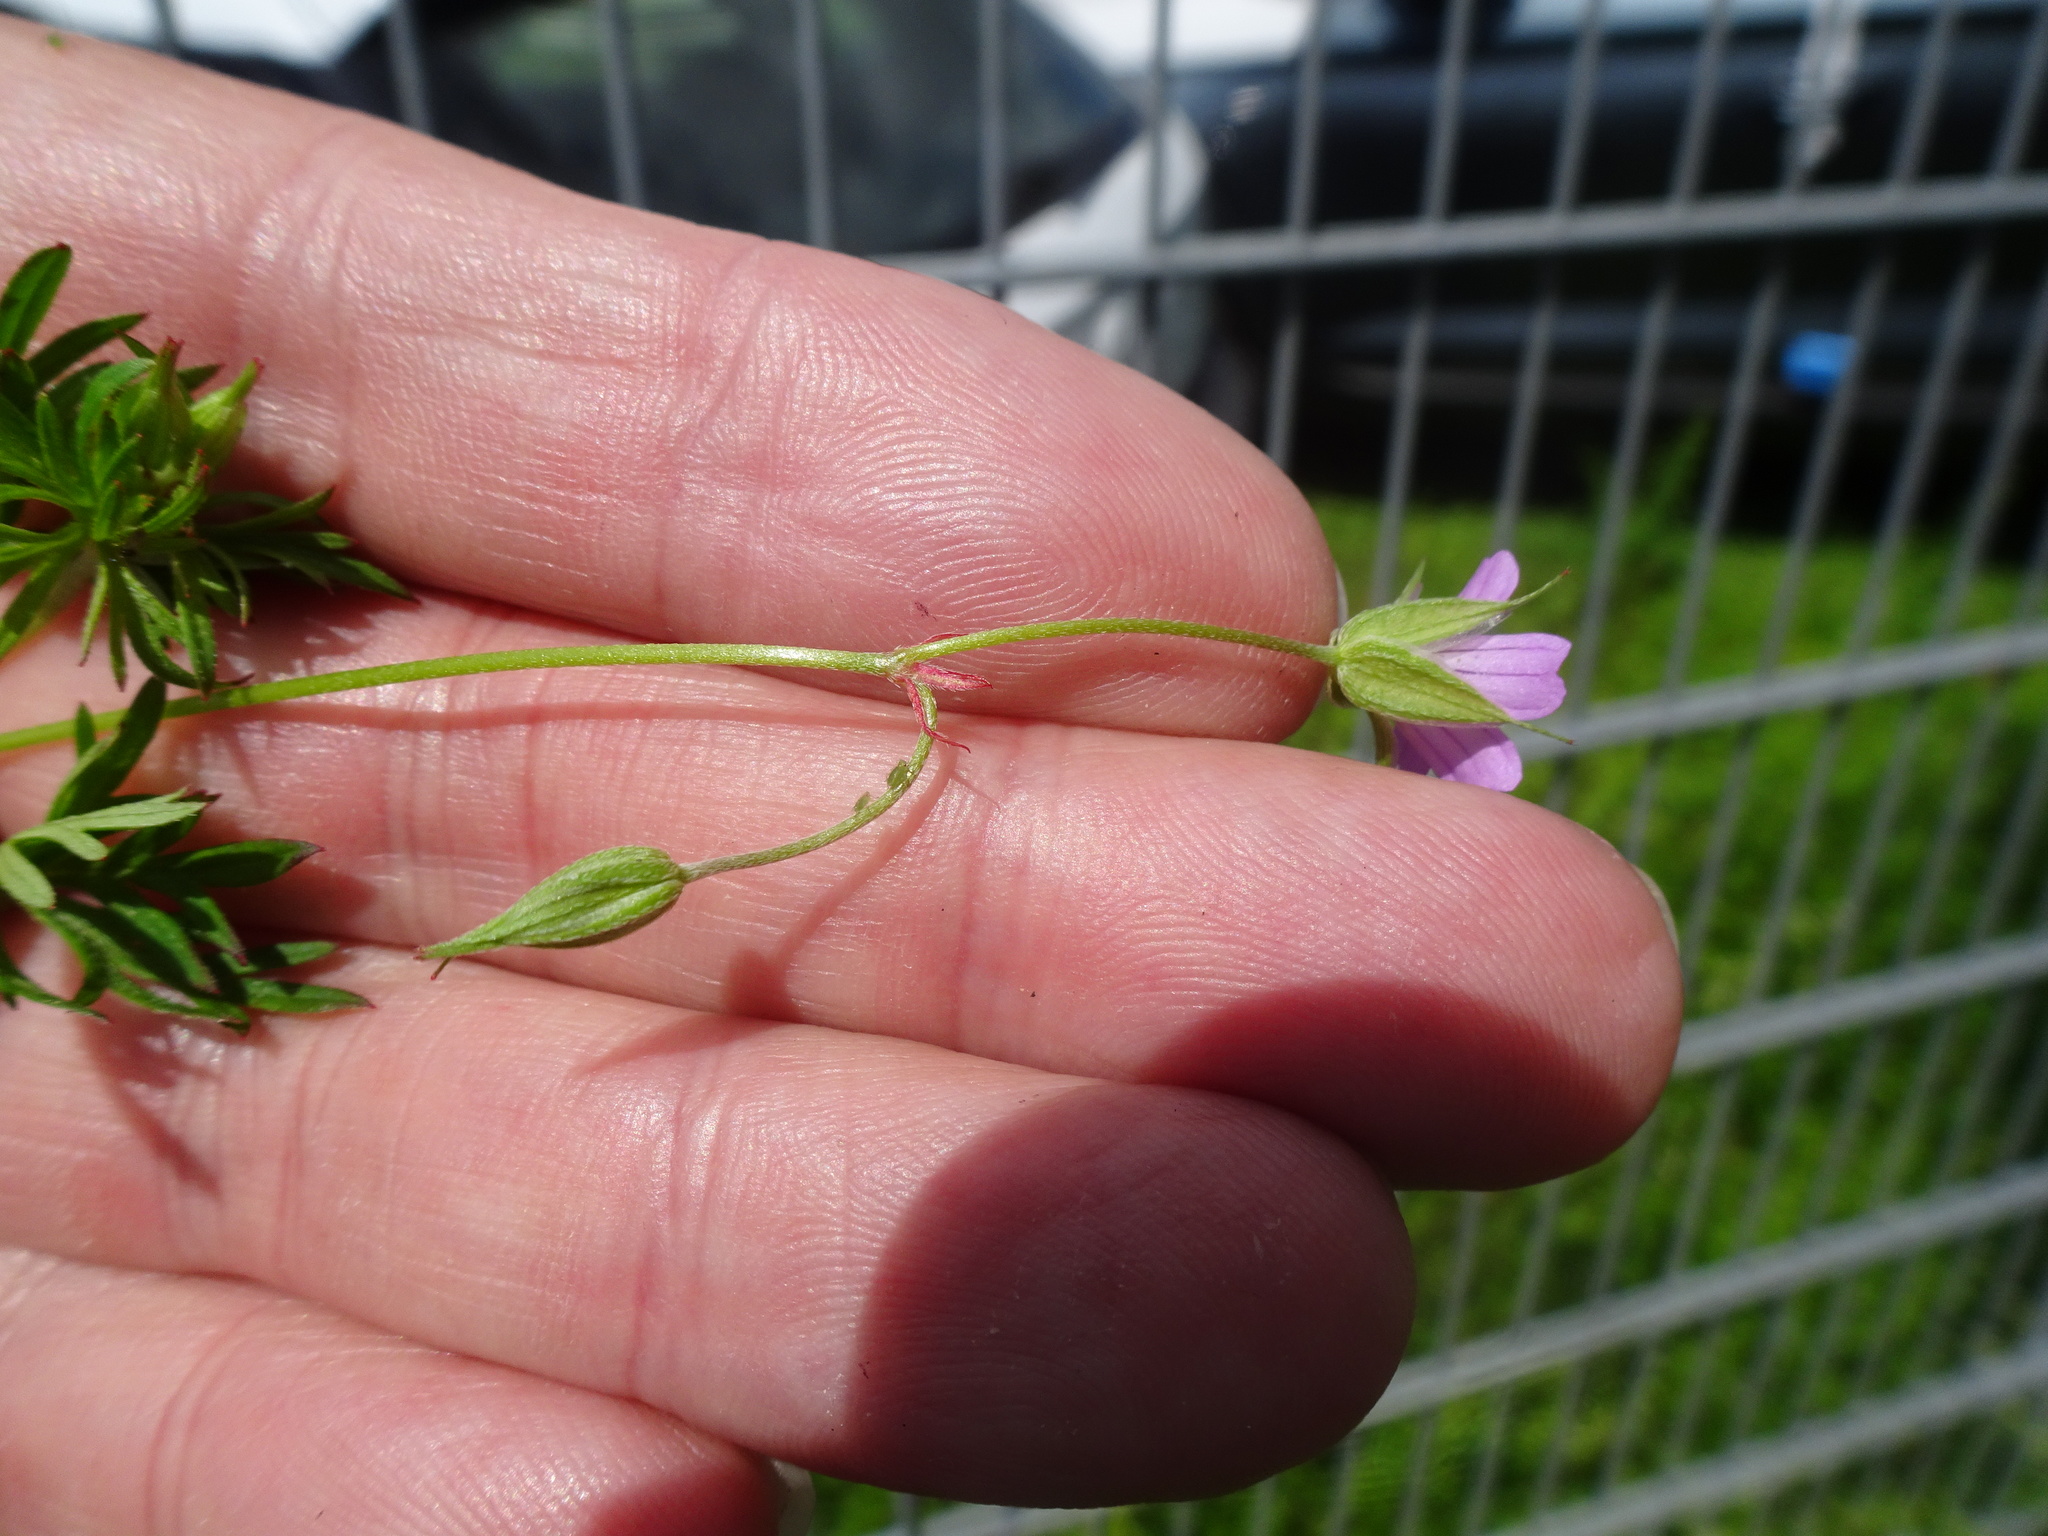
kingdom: Plantae
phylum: Tracheophyta
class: Magnoliopsida
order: Geraniales
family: Geraniaceae
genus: Geranium
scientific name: Geranium columbinum
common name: Long-stalked crane's-bill
